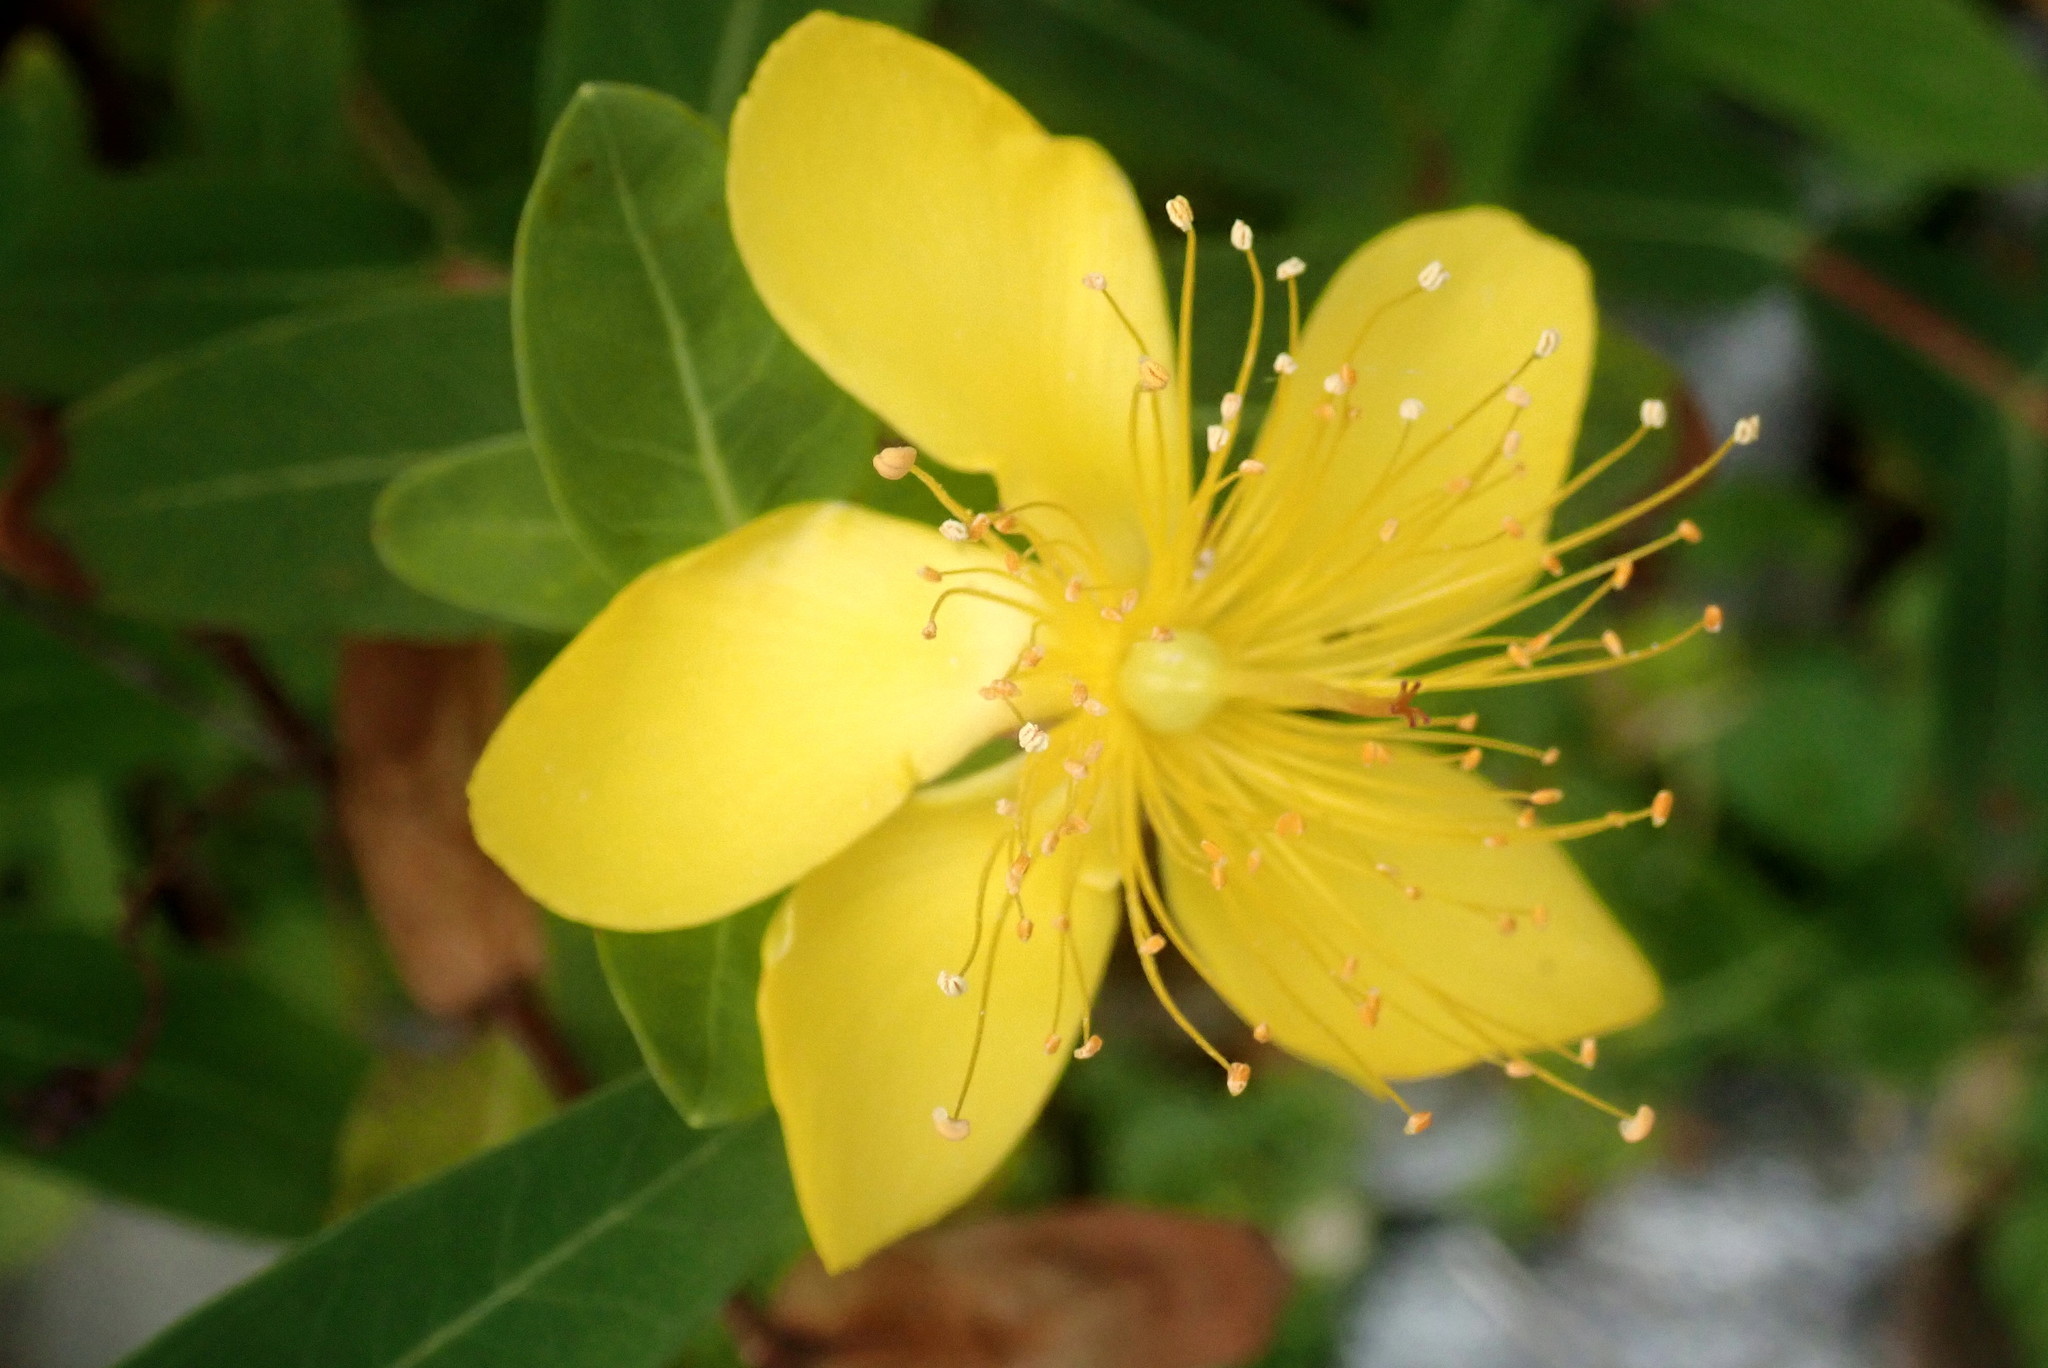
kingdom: Plantae
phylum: Tracheophyta
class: Magnoliopsida
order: Malpighiales
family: Hypericaceae
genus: Hypericum
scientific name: Hypericum aethiopicum
